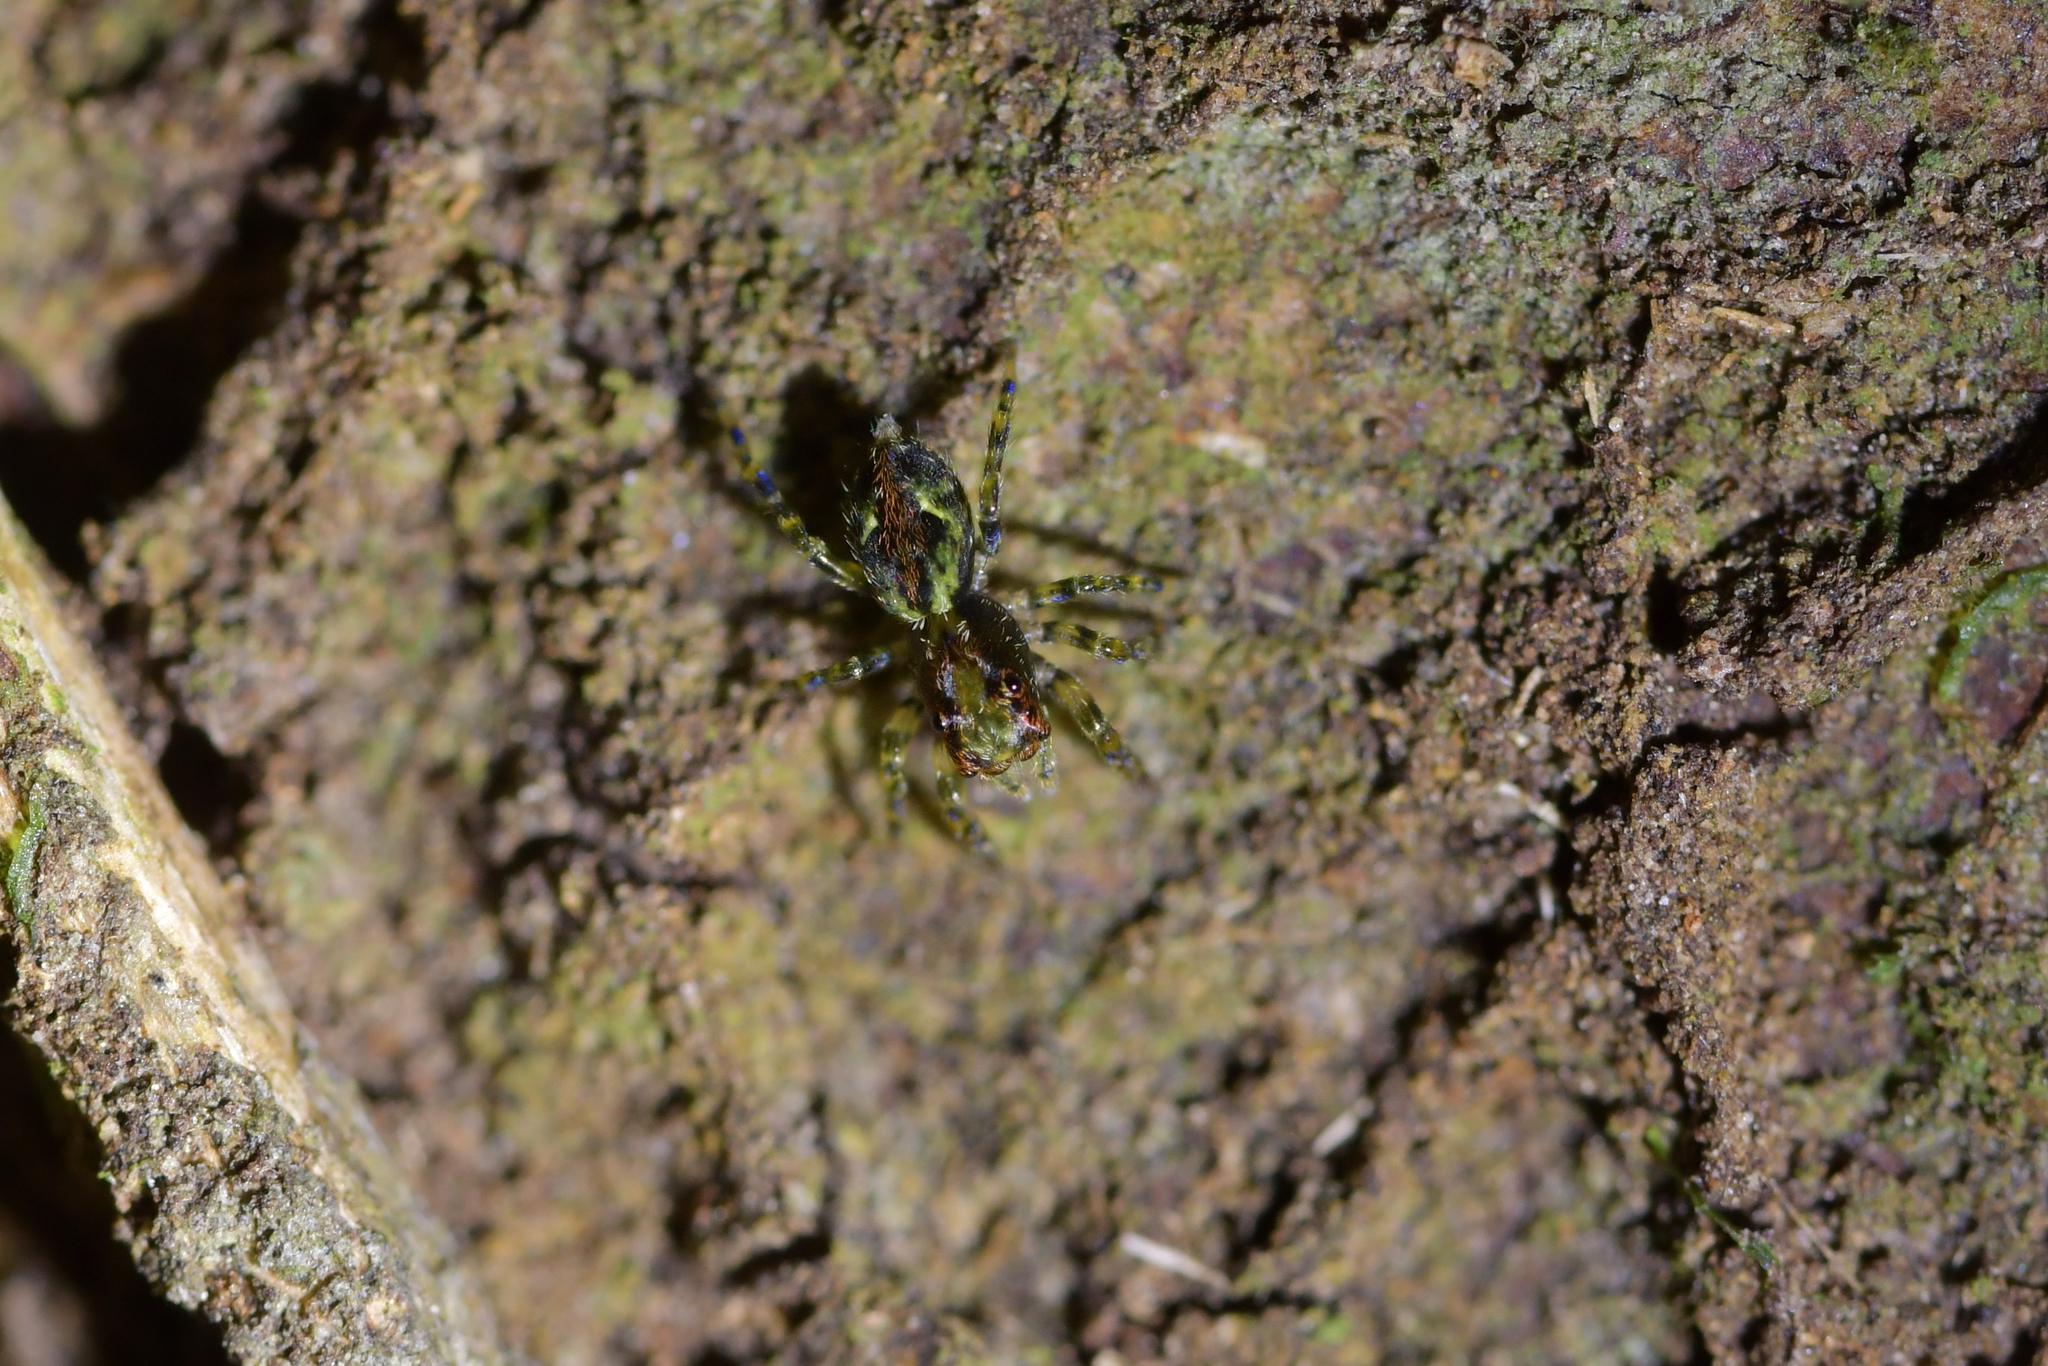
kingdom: Animalia
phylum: Arthropoda
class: Arachnida
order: Araneae
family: Salticidae
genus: Hinewaia
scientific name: Hinewaia embolica
